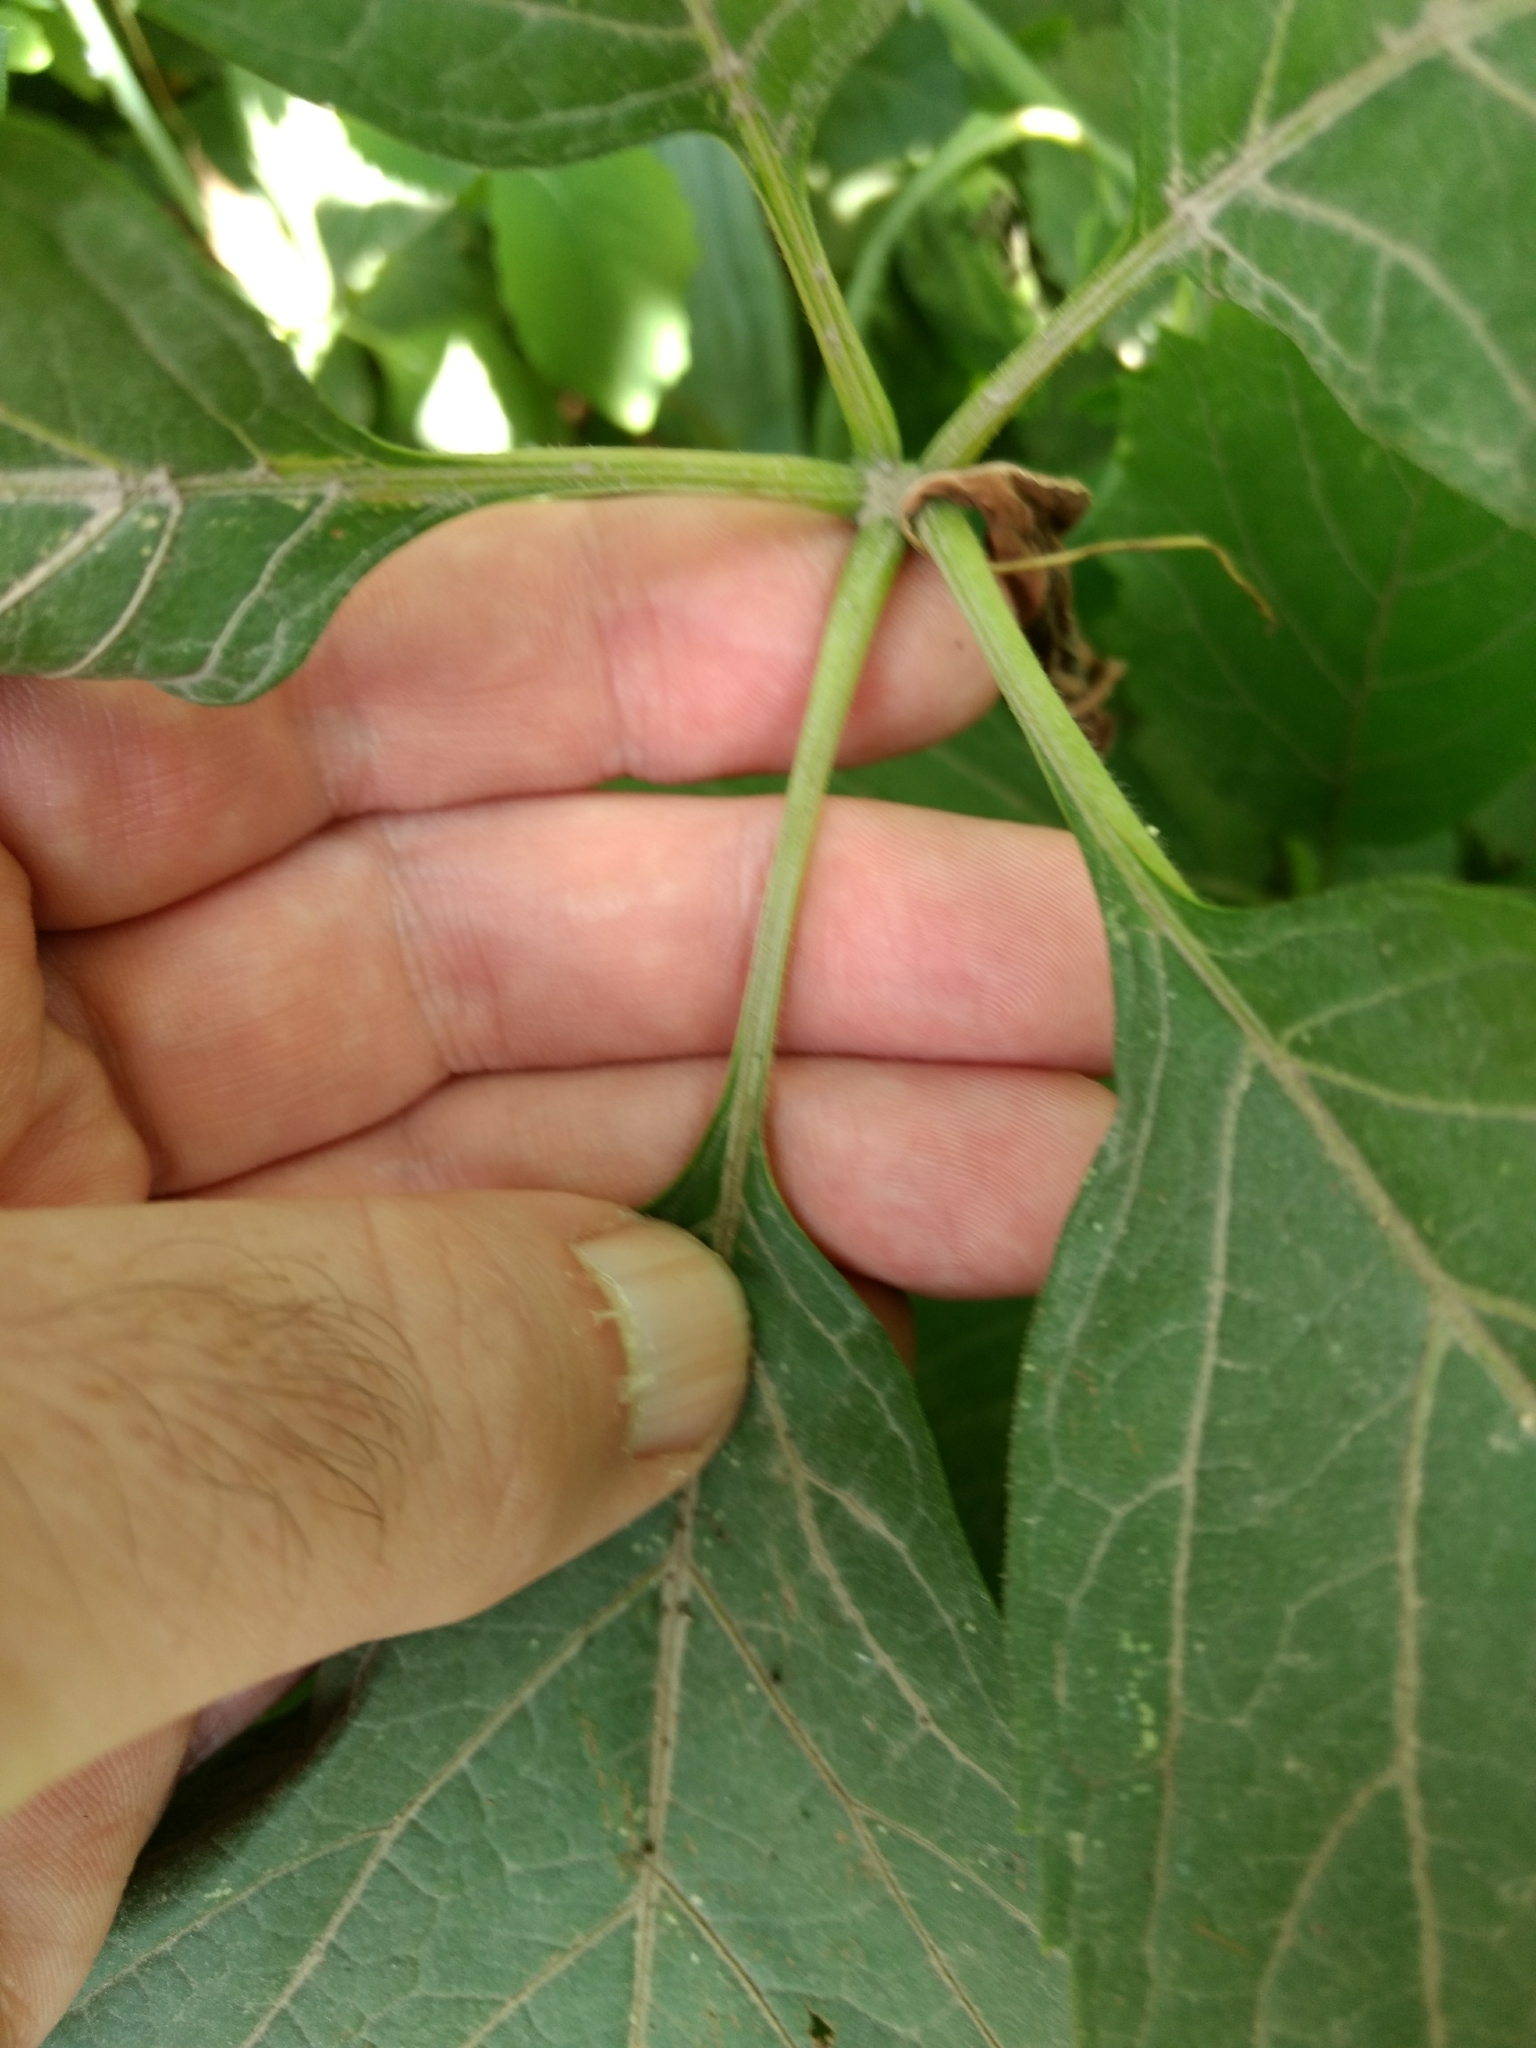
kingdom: Plantae
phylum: Tracheophyta
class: Magnoliopsida
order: Vitales
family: Vitaceae
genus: Parthenocissus
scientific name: Parthenocissus inserta
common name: False virginia-creeper
